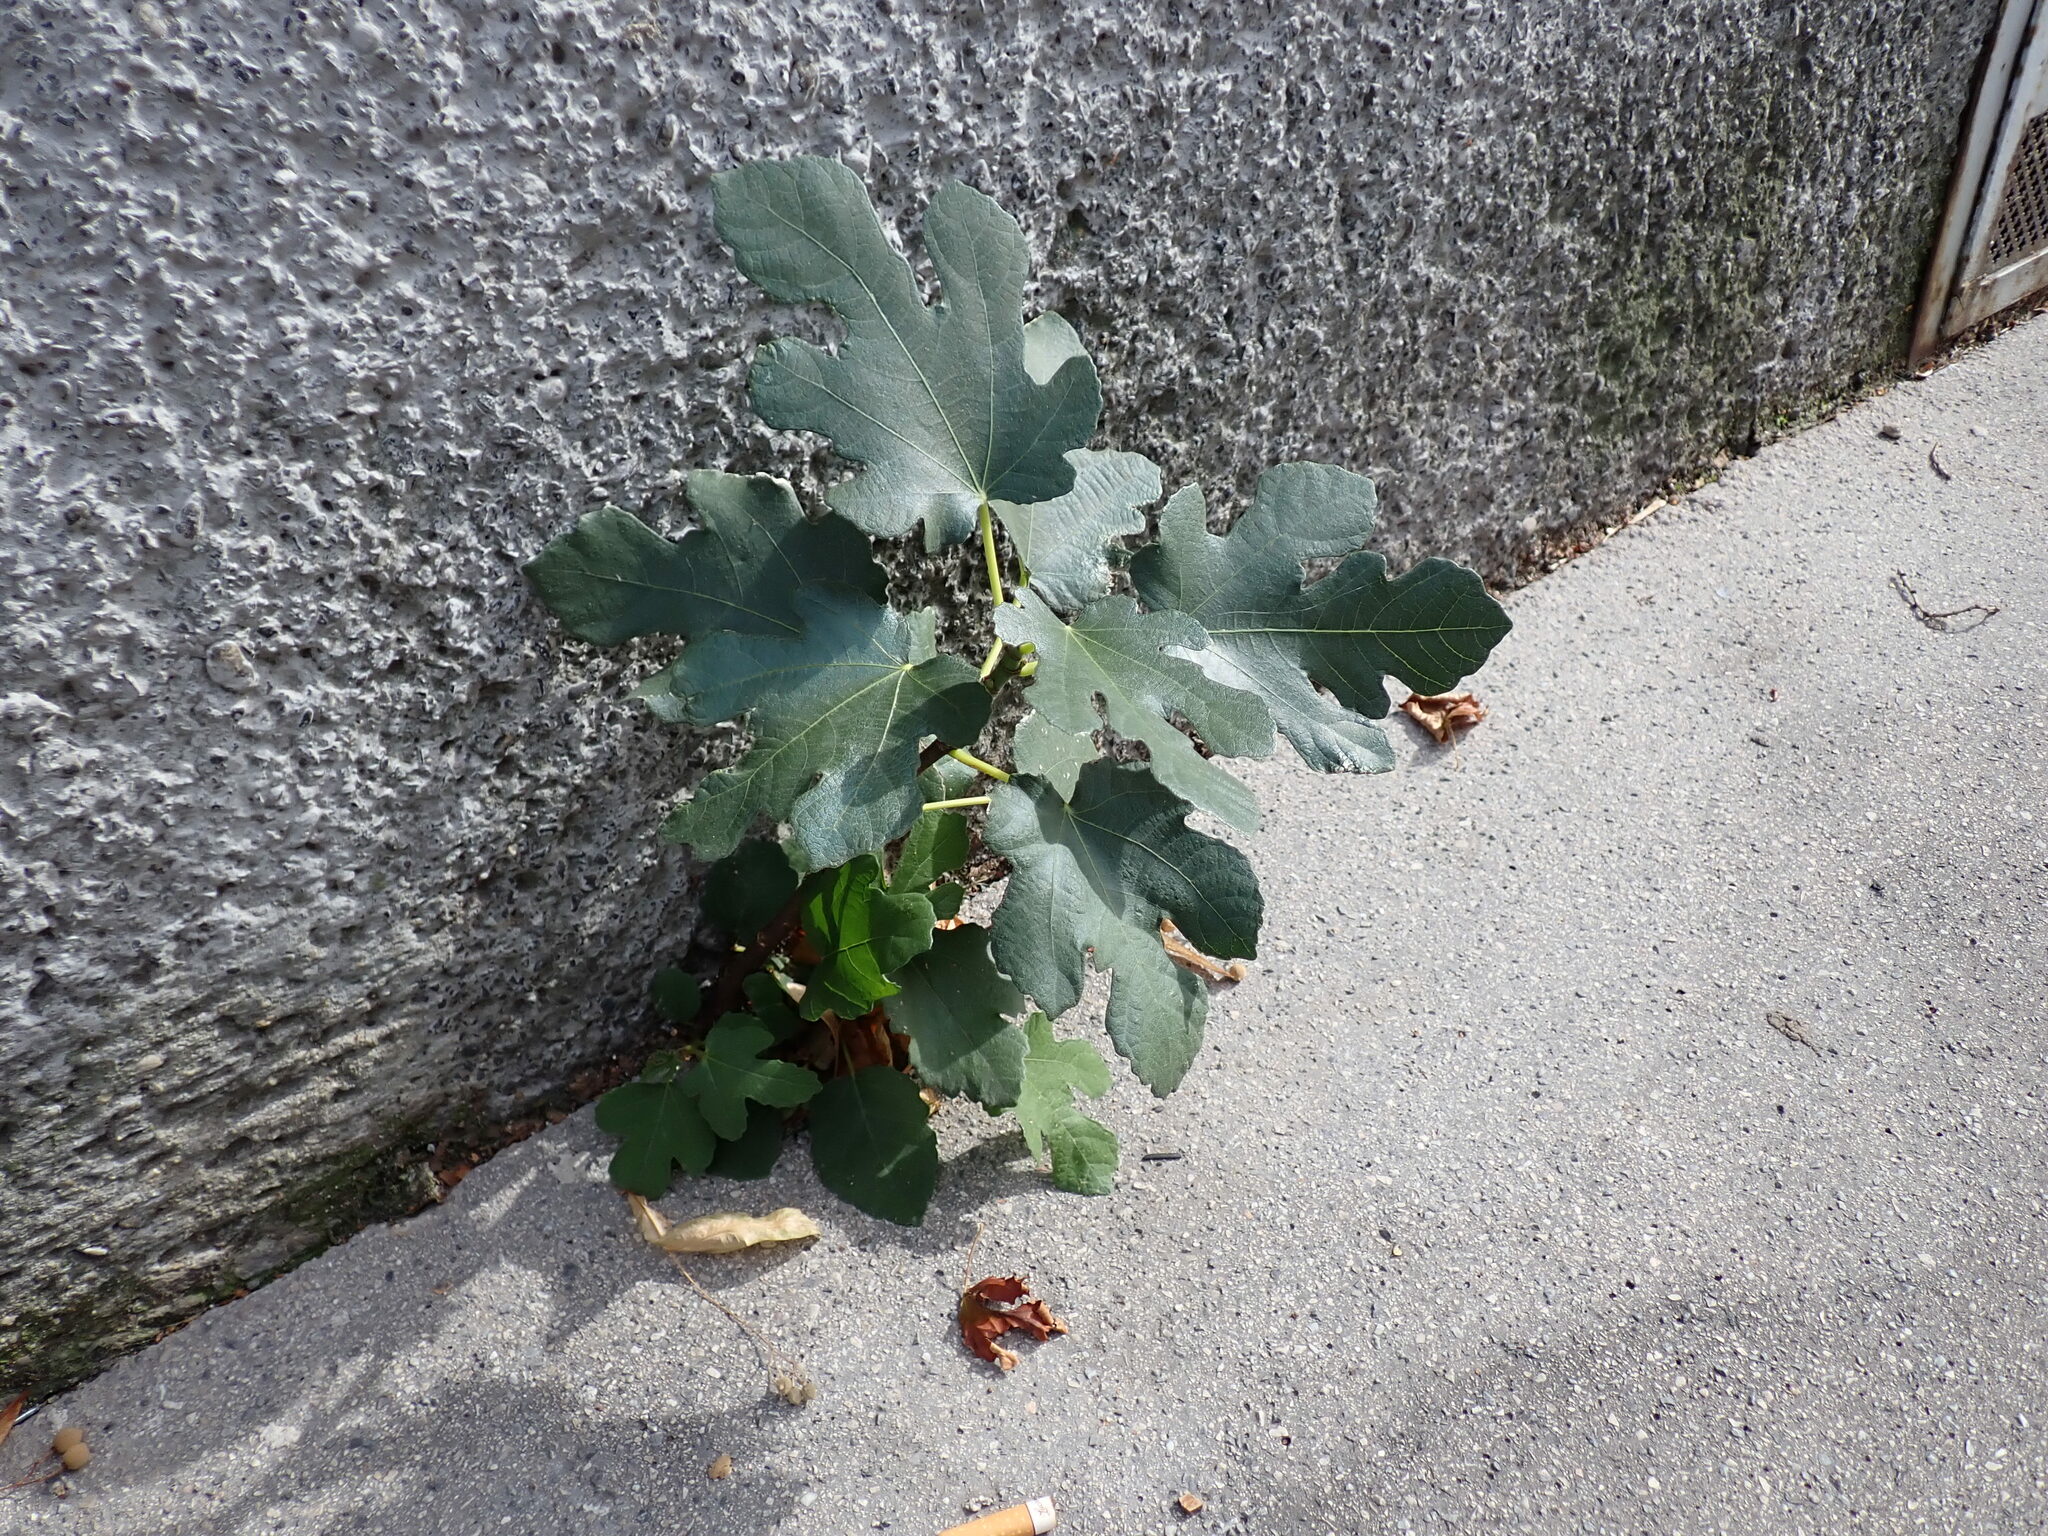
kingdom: Plantae
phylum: Tracheophyta
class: Magnoliopsida
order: Rosales
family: Moraceae
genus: Ficus
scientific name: Ficus carica
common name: Fig
